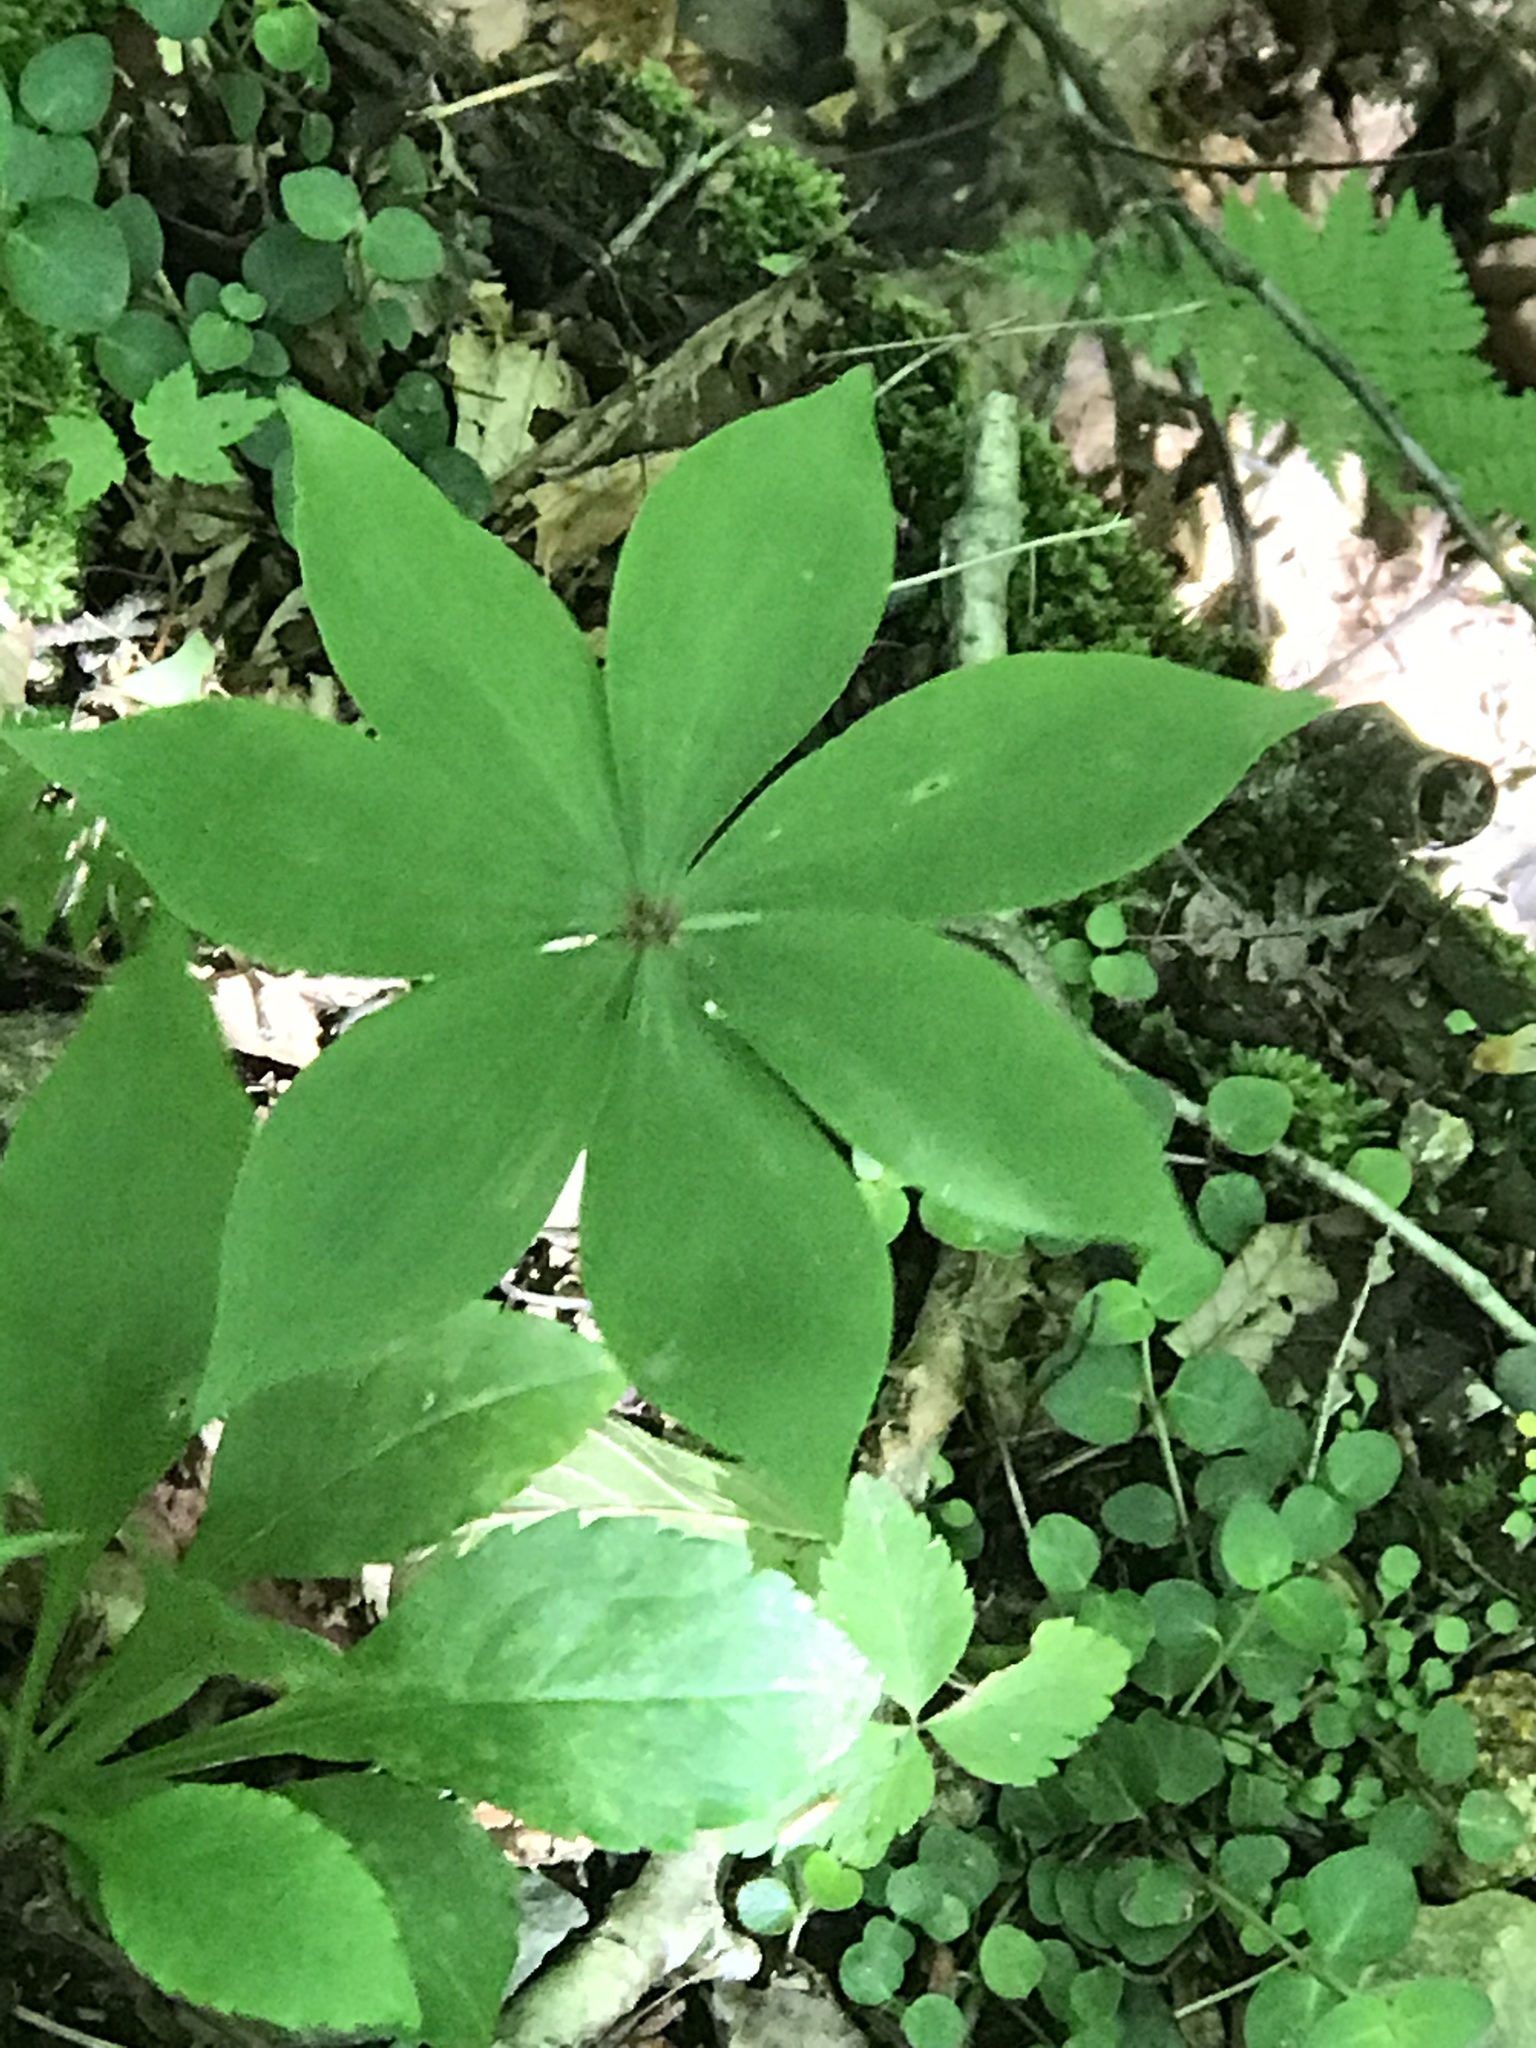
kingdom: Plantae
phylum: Tracheophyta
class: Liliopsida
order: Liliales
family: Liliaceae
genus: Medeola
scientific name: Medeola virginiana
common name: Indian cucumber-root
